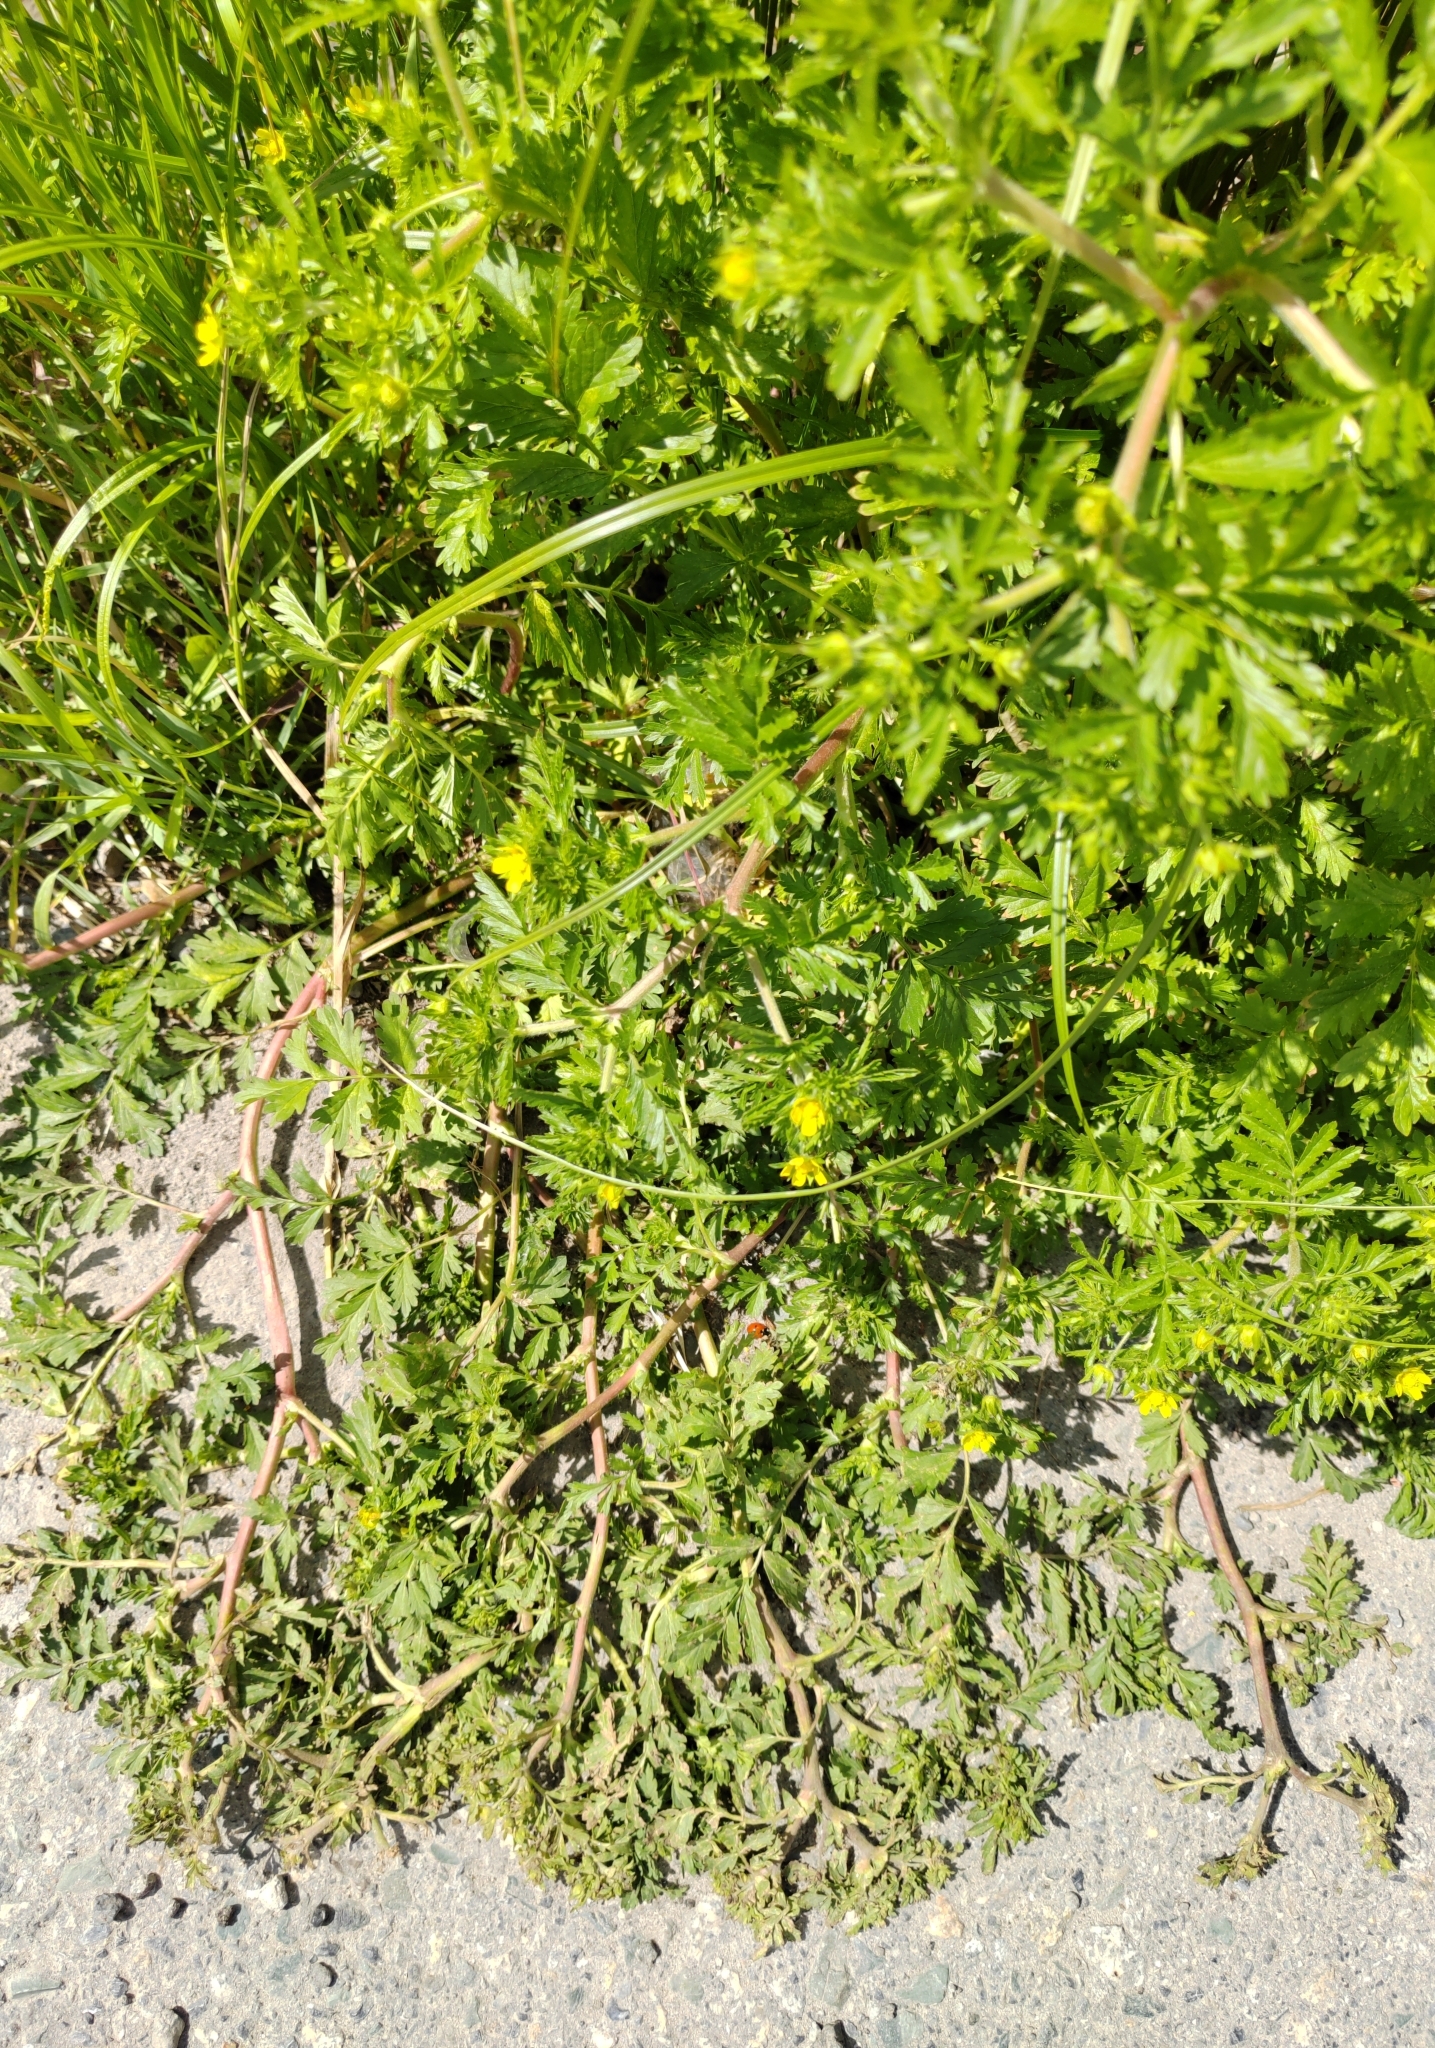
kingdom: Plantae
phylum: Tracheophyta
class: Magnoliopsida
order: Rosales
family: Rosaceae
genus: Potentilla
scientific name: Potentilla supina
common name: Prostrate cinquefoil
